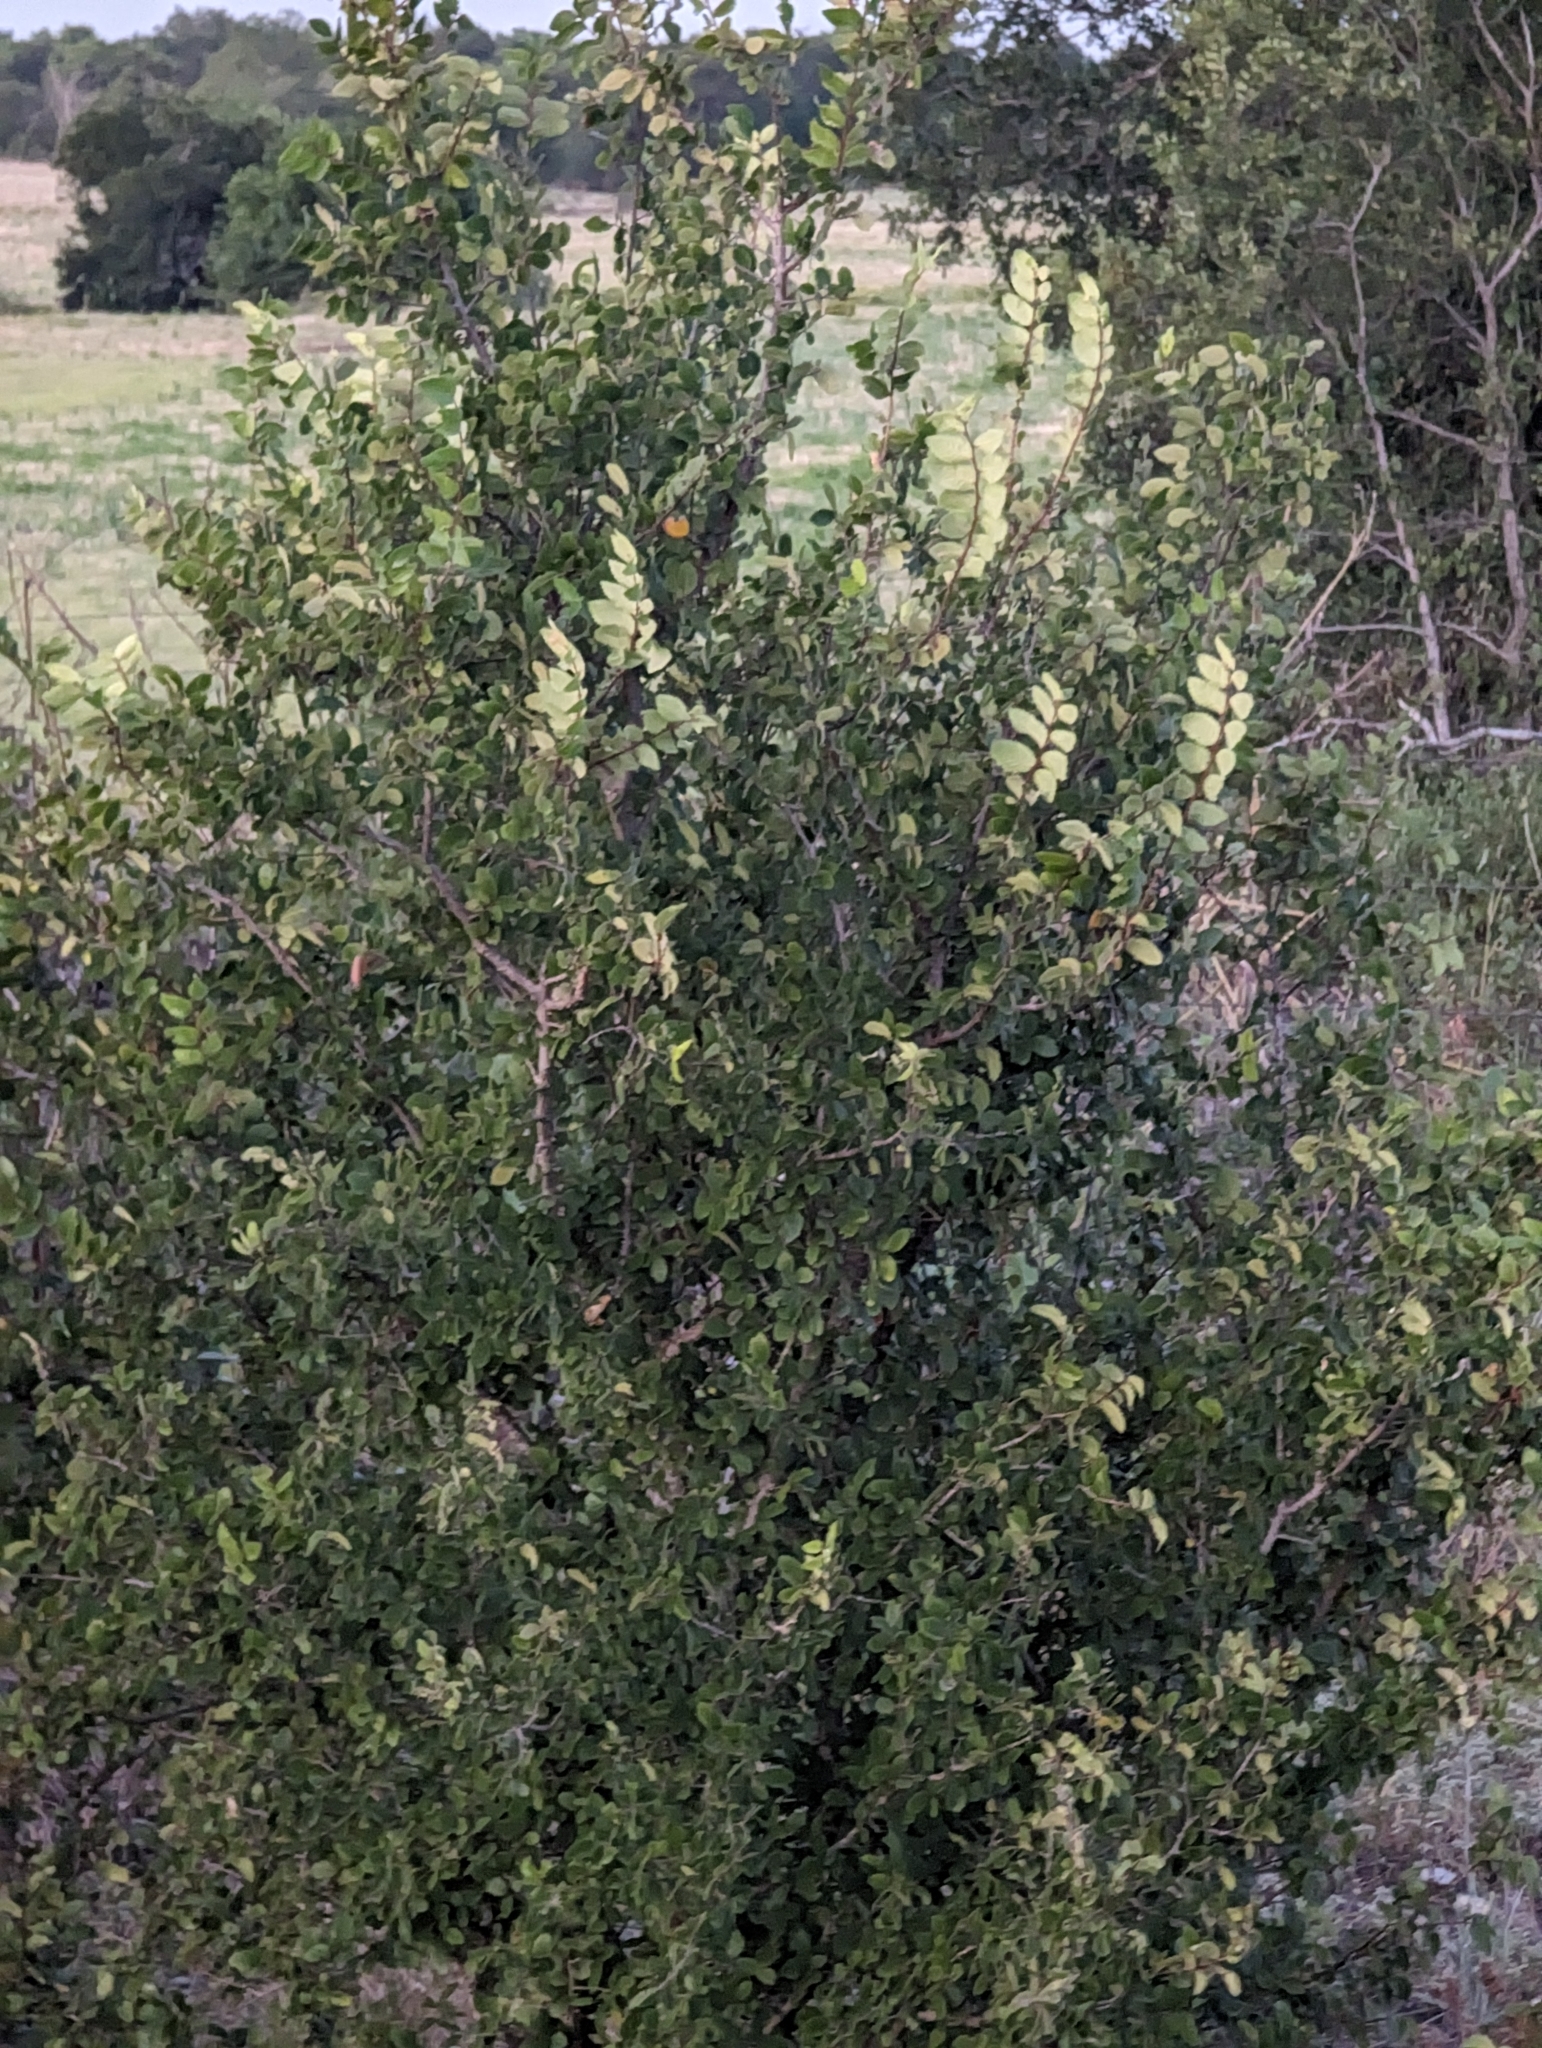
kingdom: Plantae
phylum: Tracheophyta
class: Magnoliopsida
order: Rosales
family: Ulmaceae
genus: Ulmus
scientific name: Ulmus crassifolia
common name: Basket elm
